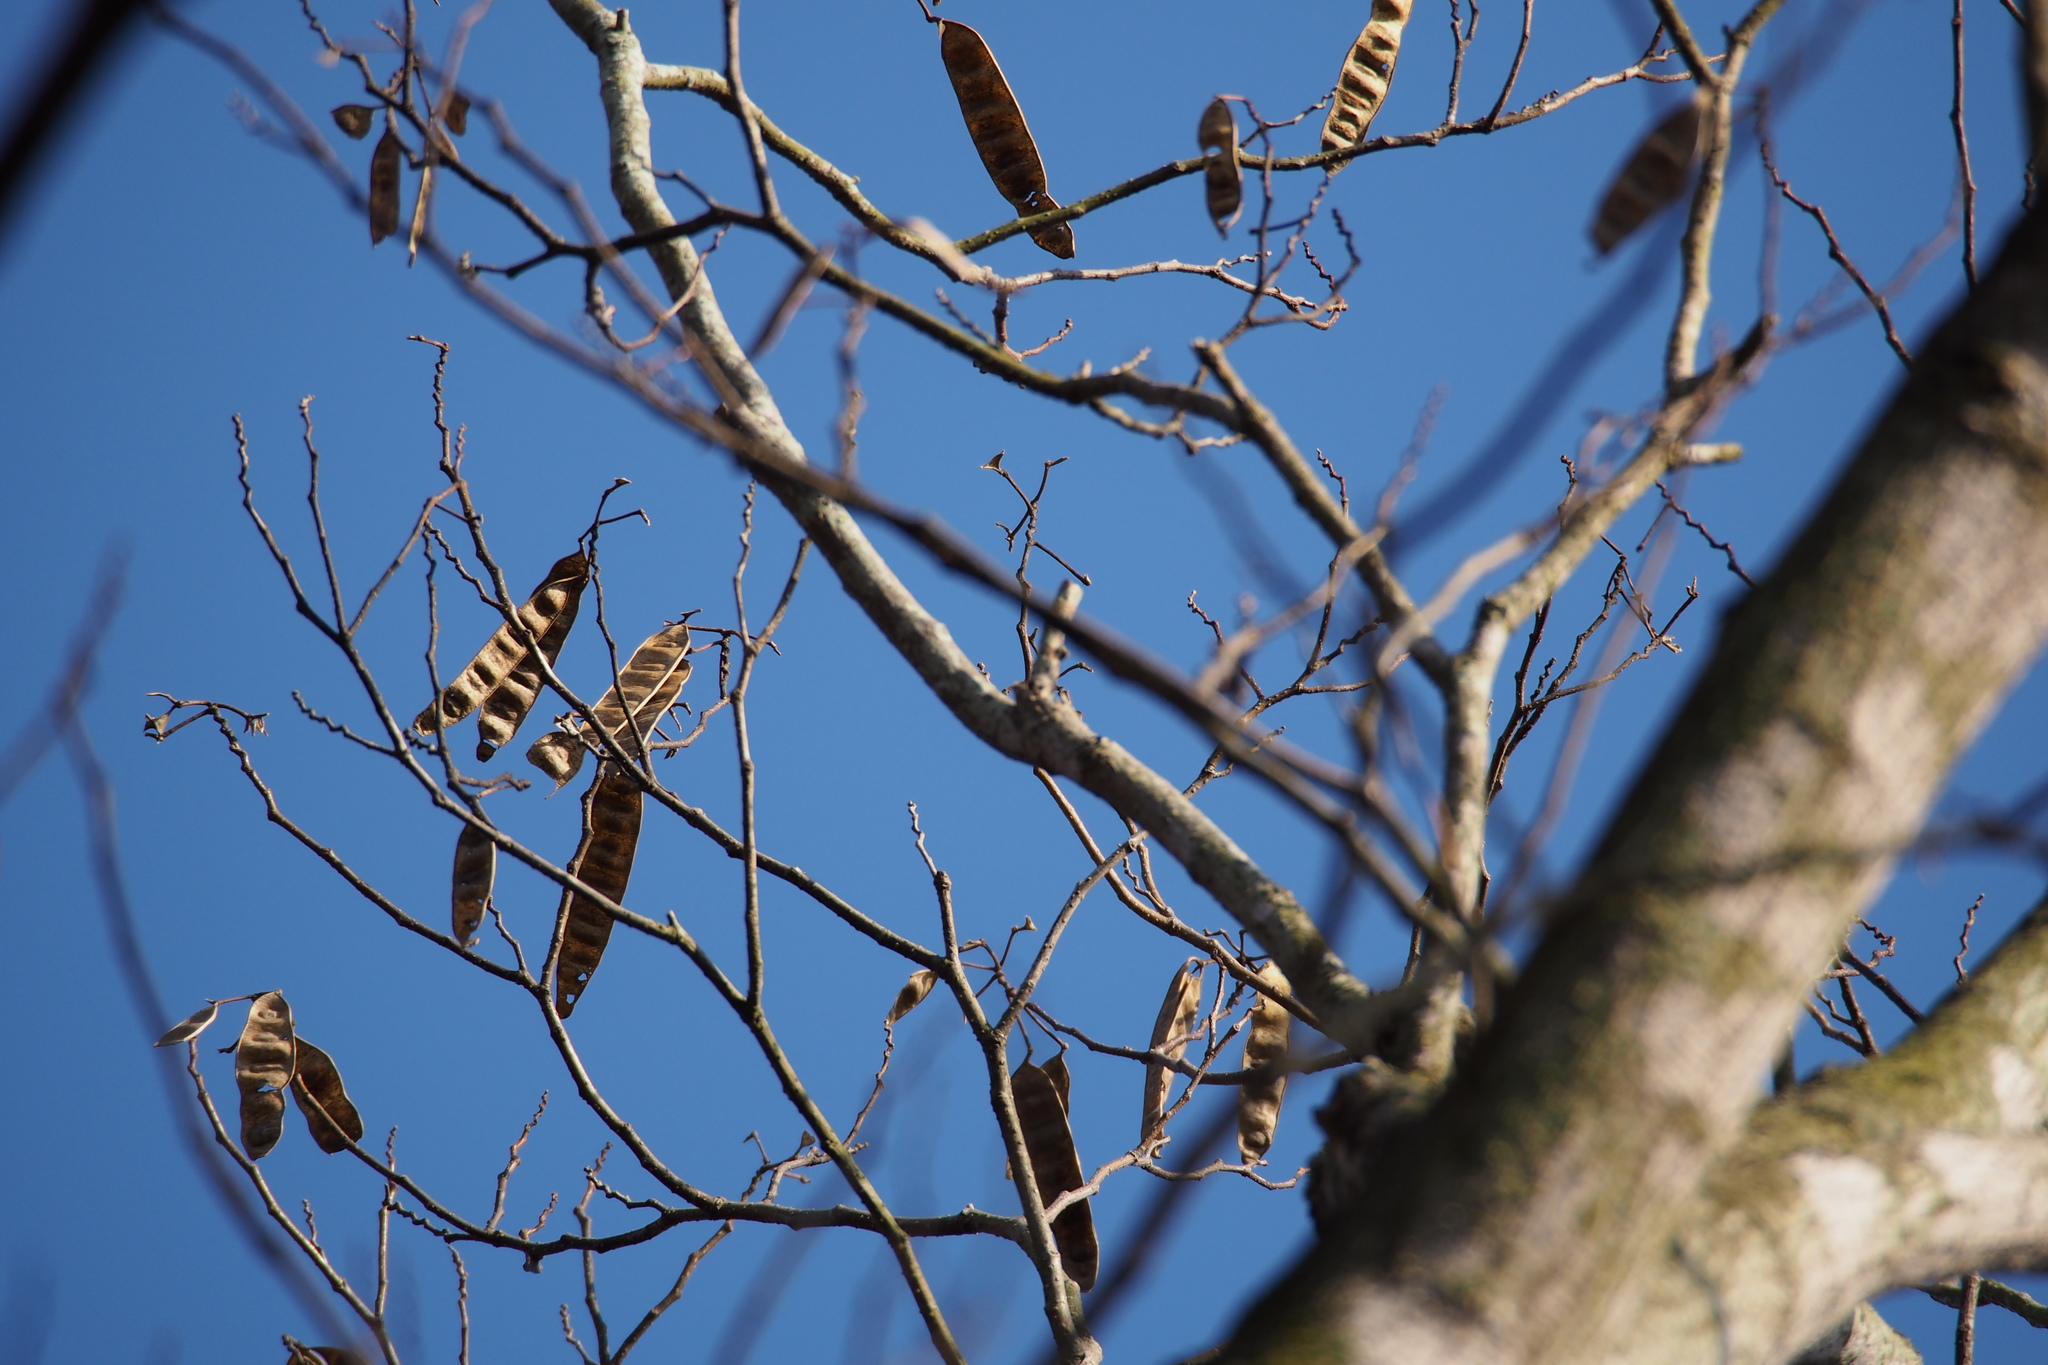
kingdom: Plantae
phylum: Tracheophyta
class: Magnoliopsida
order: Fabales
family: Fabaceae
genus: Albizia
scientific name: Albizia julibrissin
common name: Silktree
